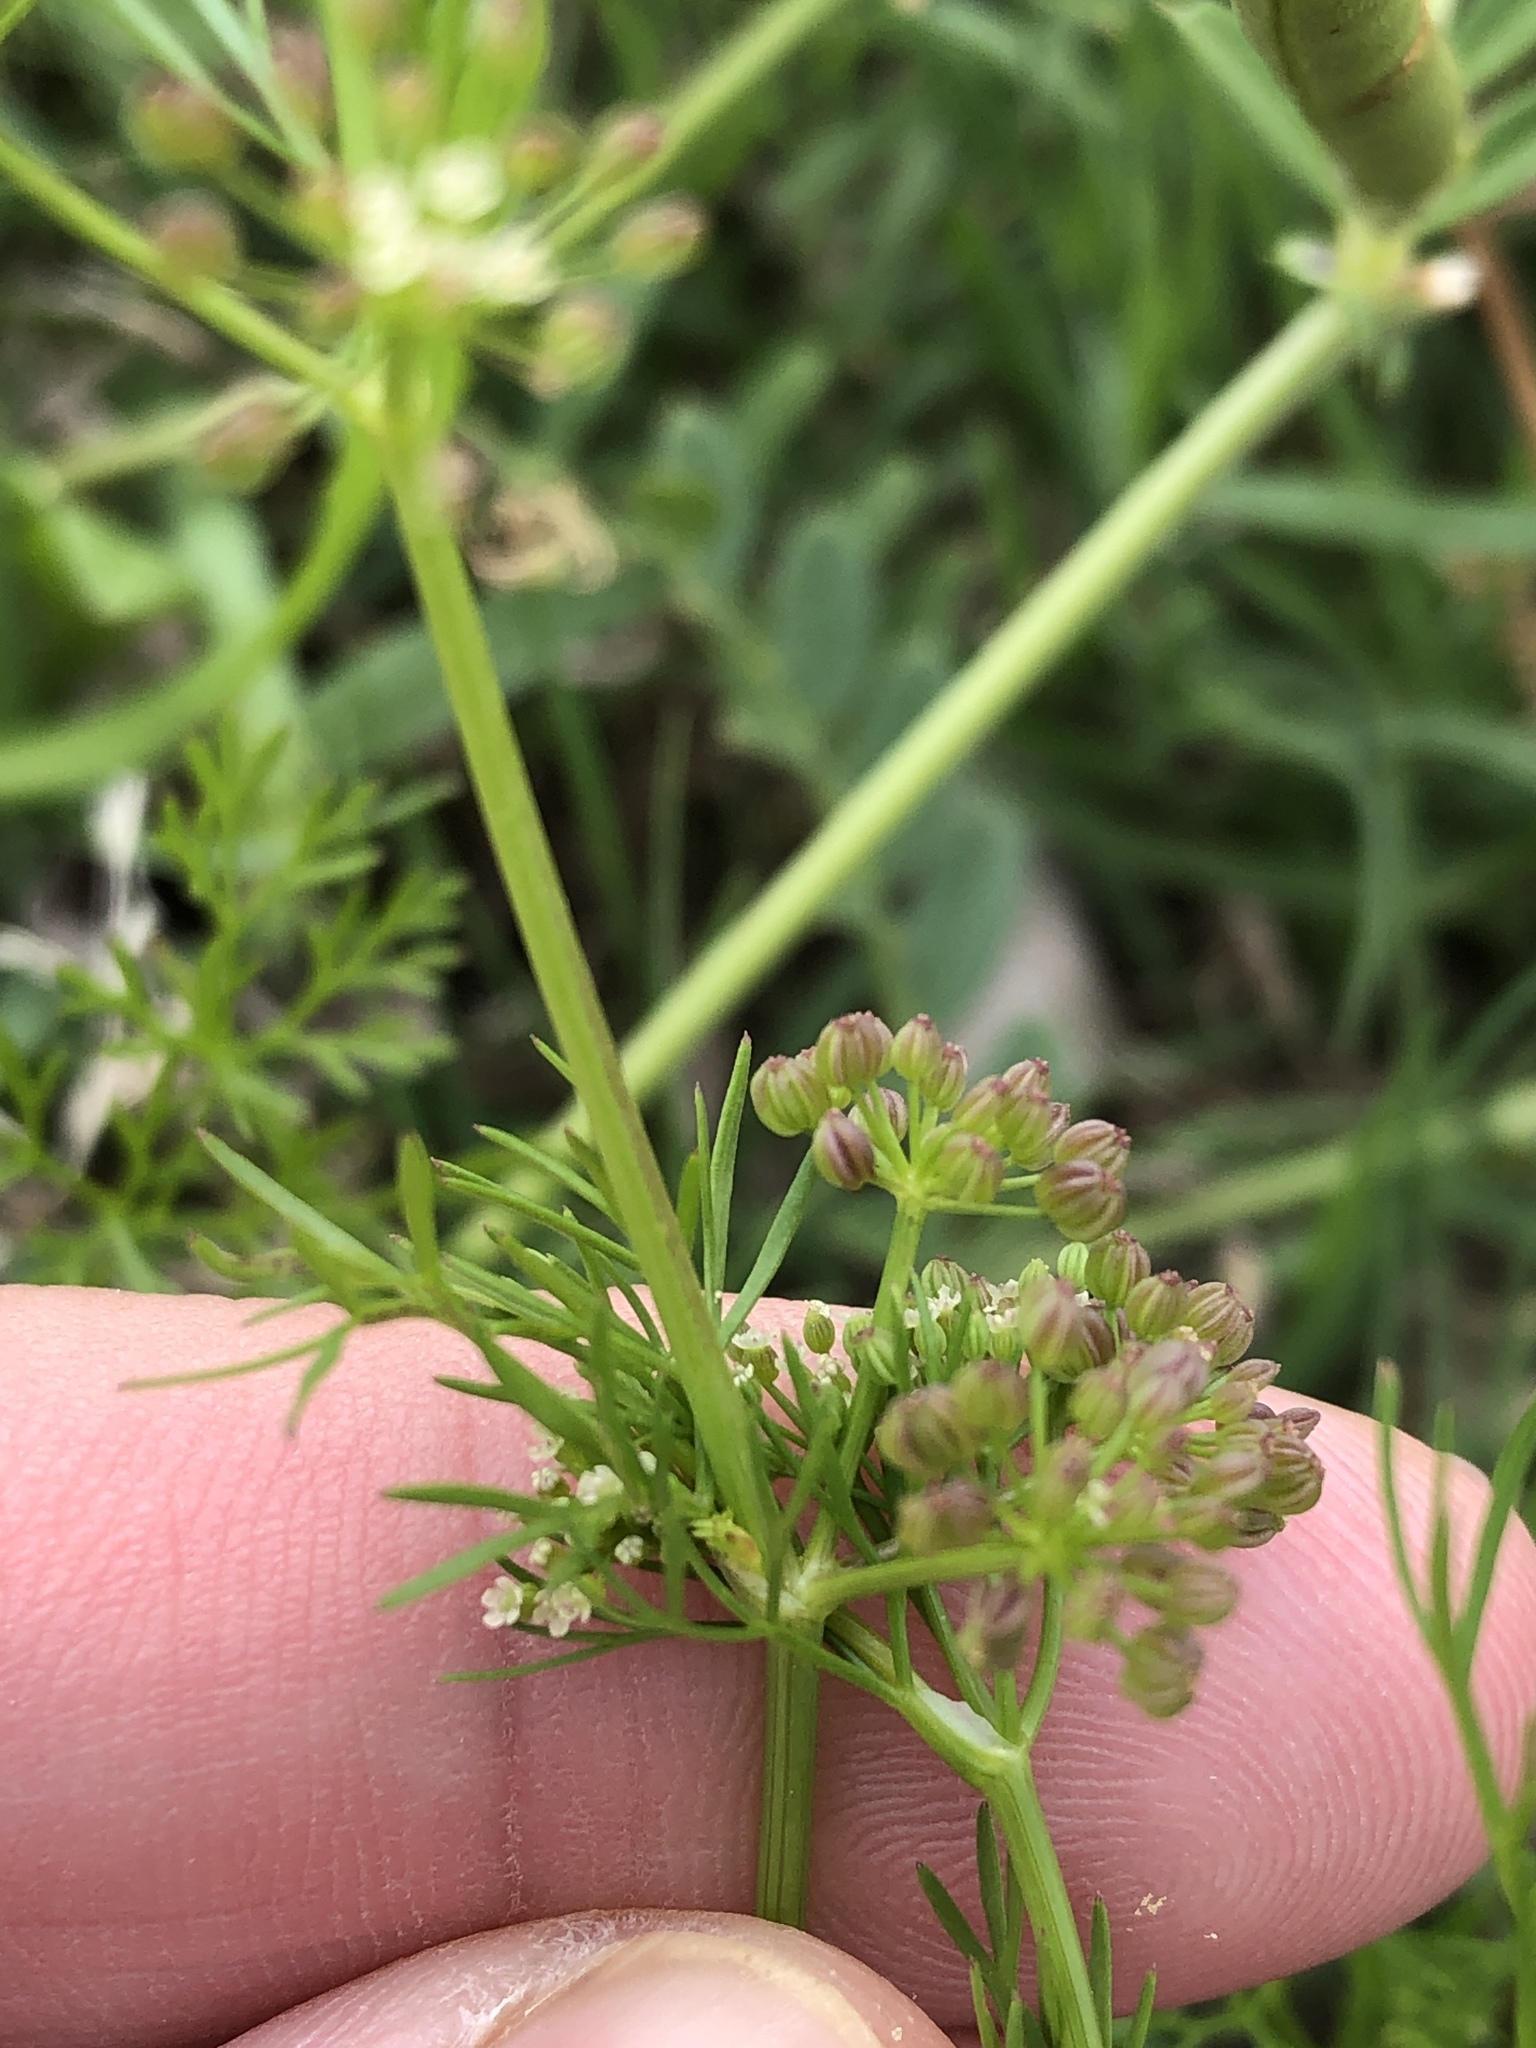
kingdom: Plantae
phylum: Tracheophyta
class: Magnoliopsida
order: Apiales
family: Apiaceae
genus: Cyclospermum
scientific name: Cyclospermum leptophyllum
